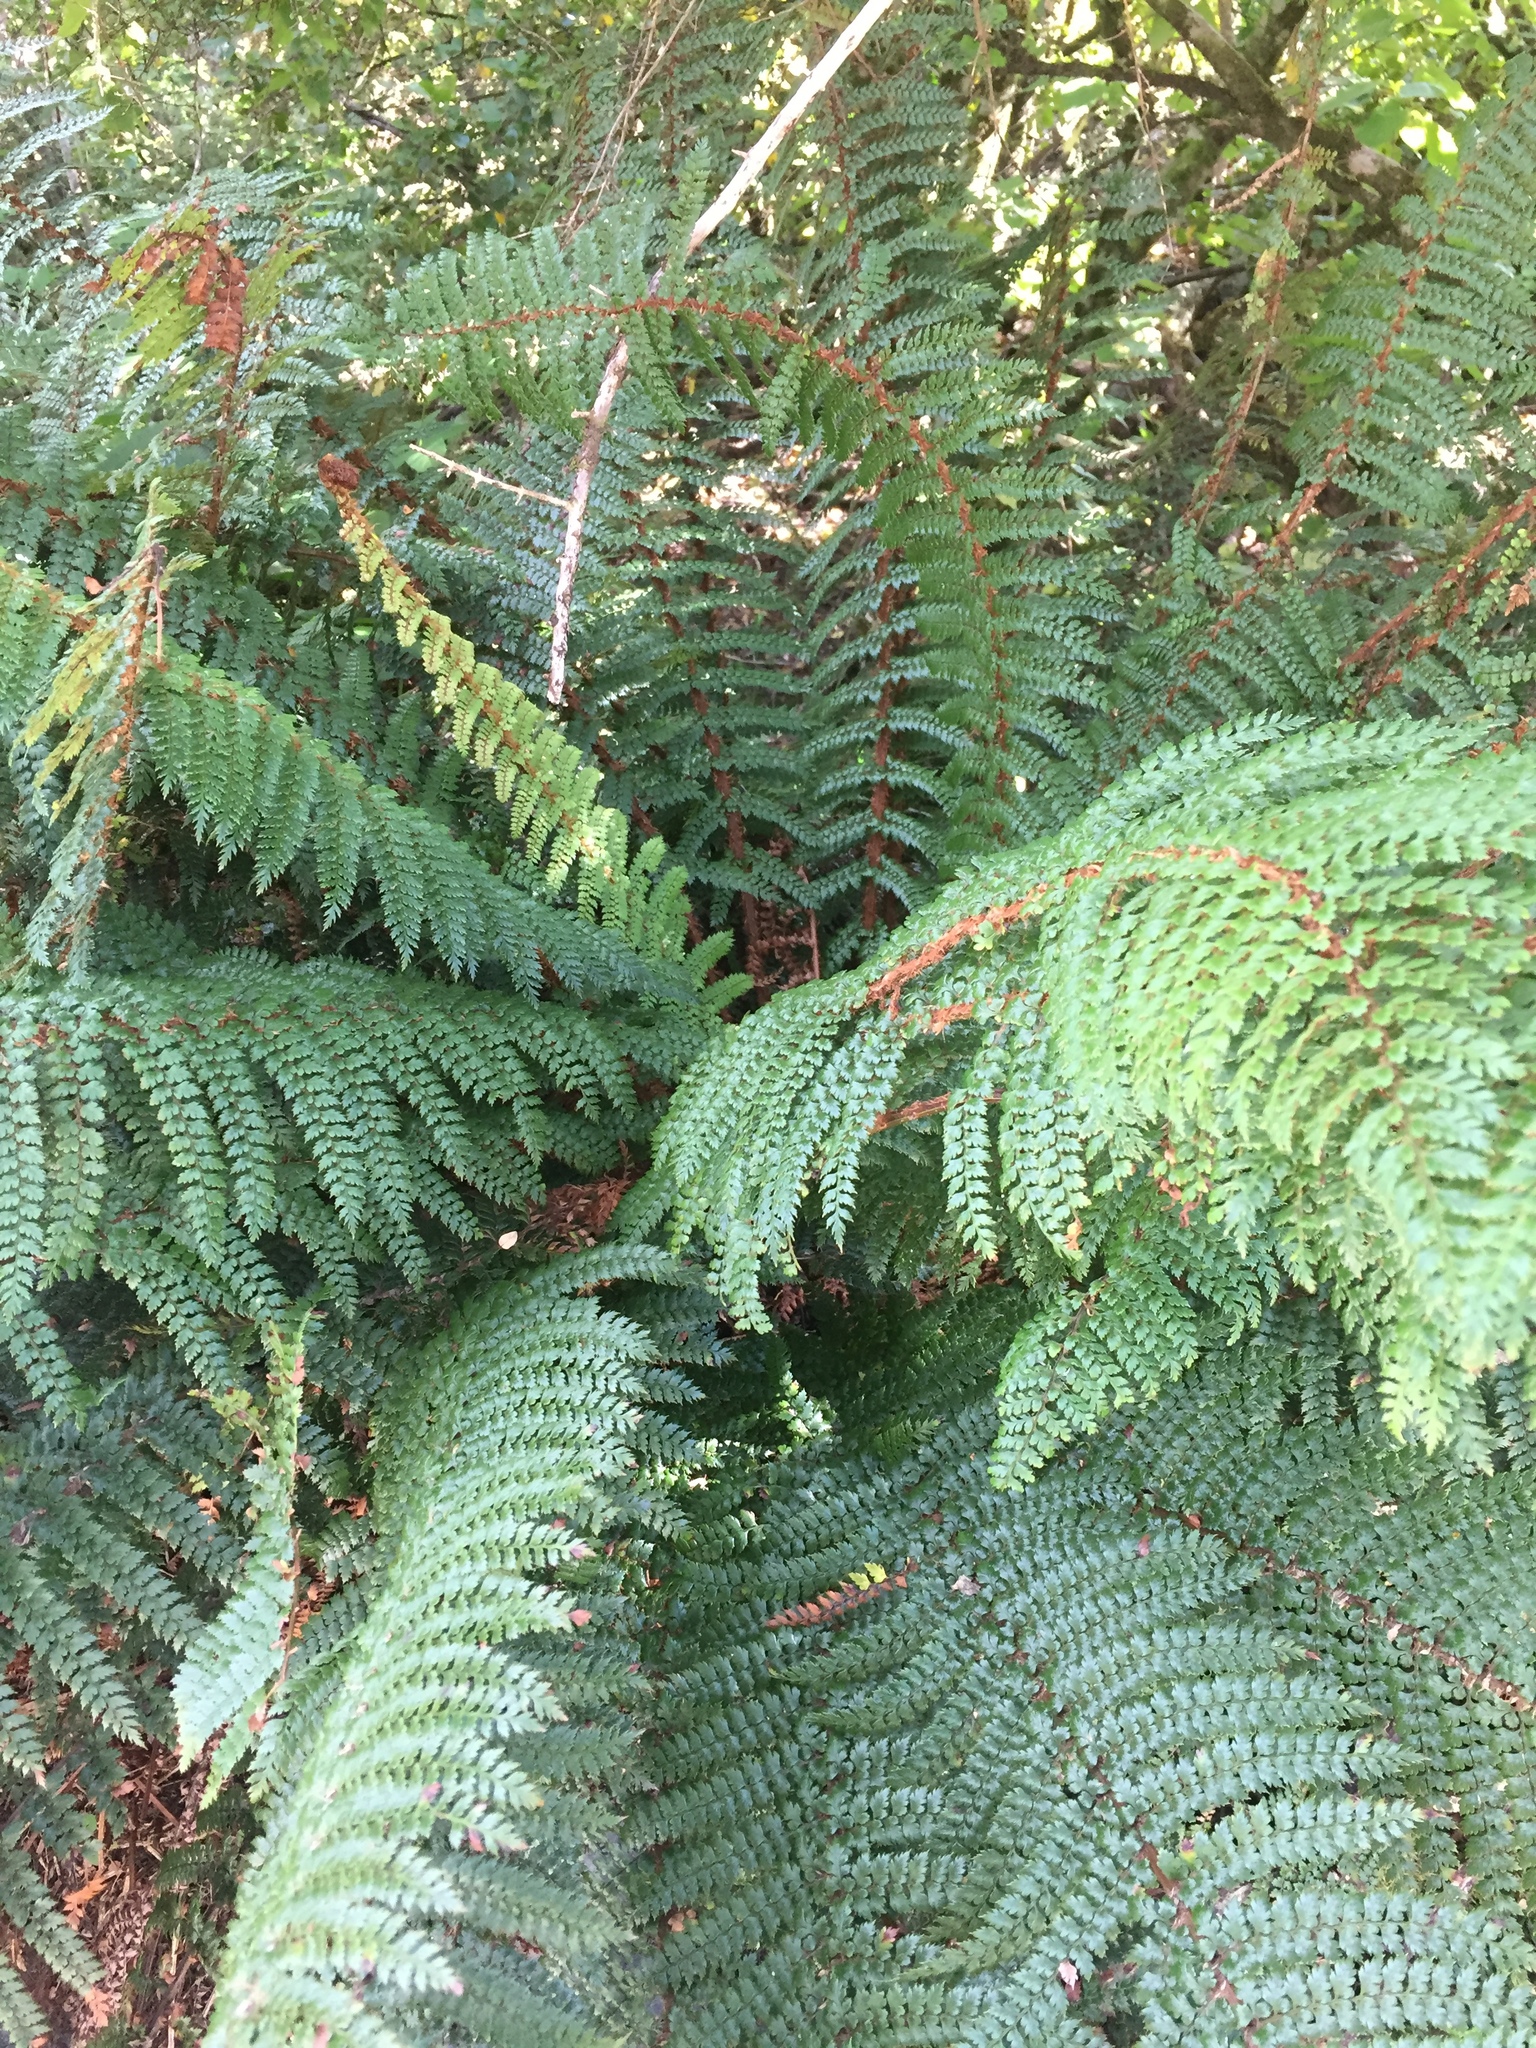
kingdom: Plantae
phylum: Tracheophyta
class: Polypodiopsida
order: Polypodiales
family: Dryopteridaceae
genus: Polystichum
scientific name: Polystichum vestitum
